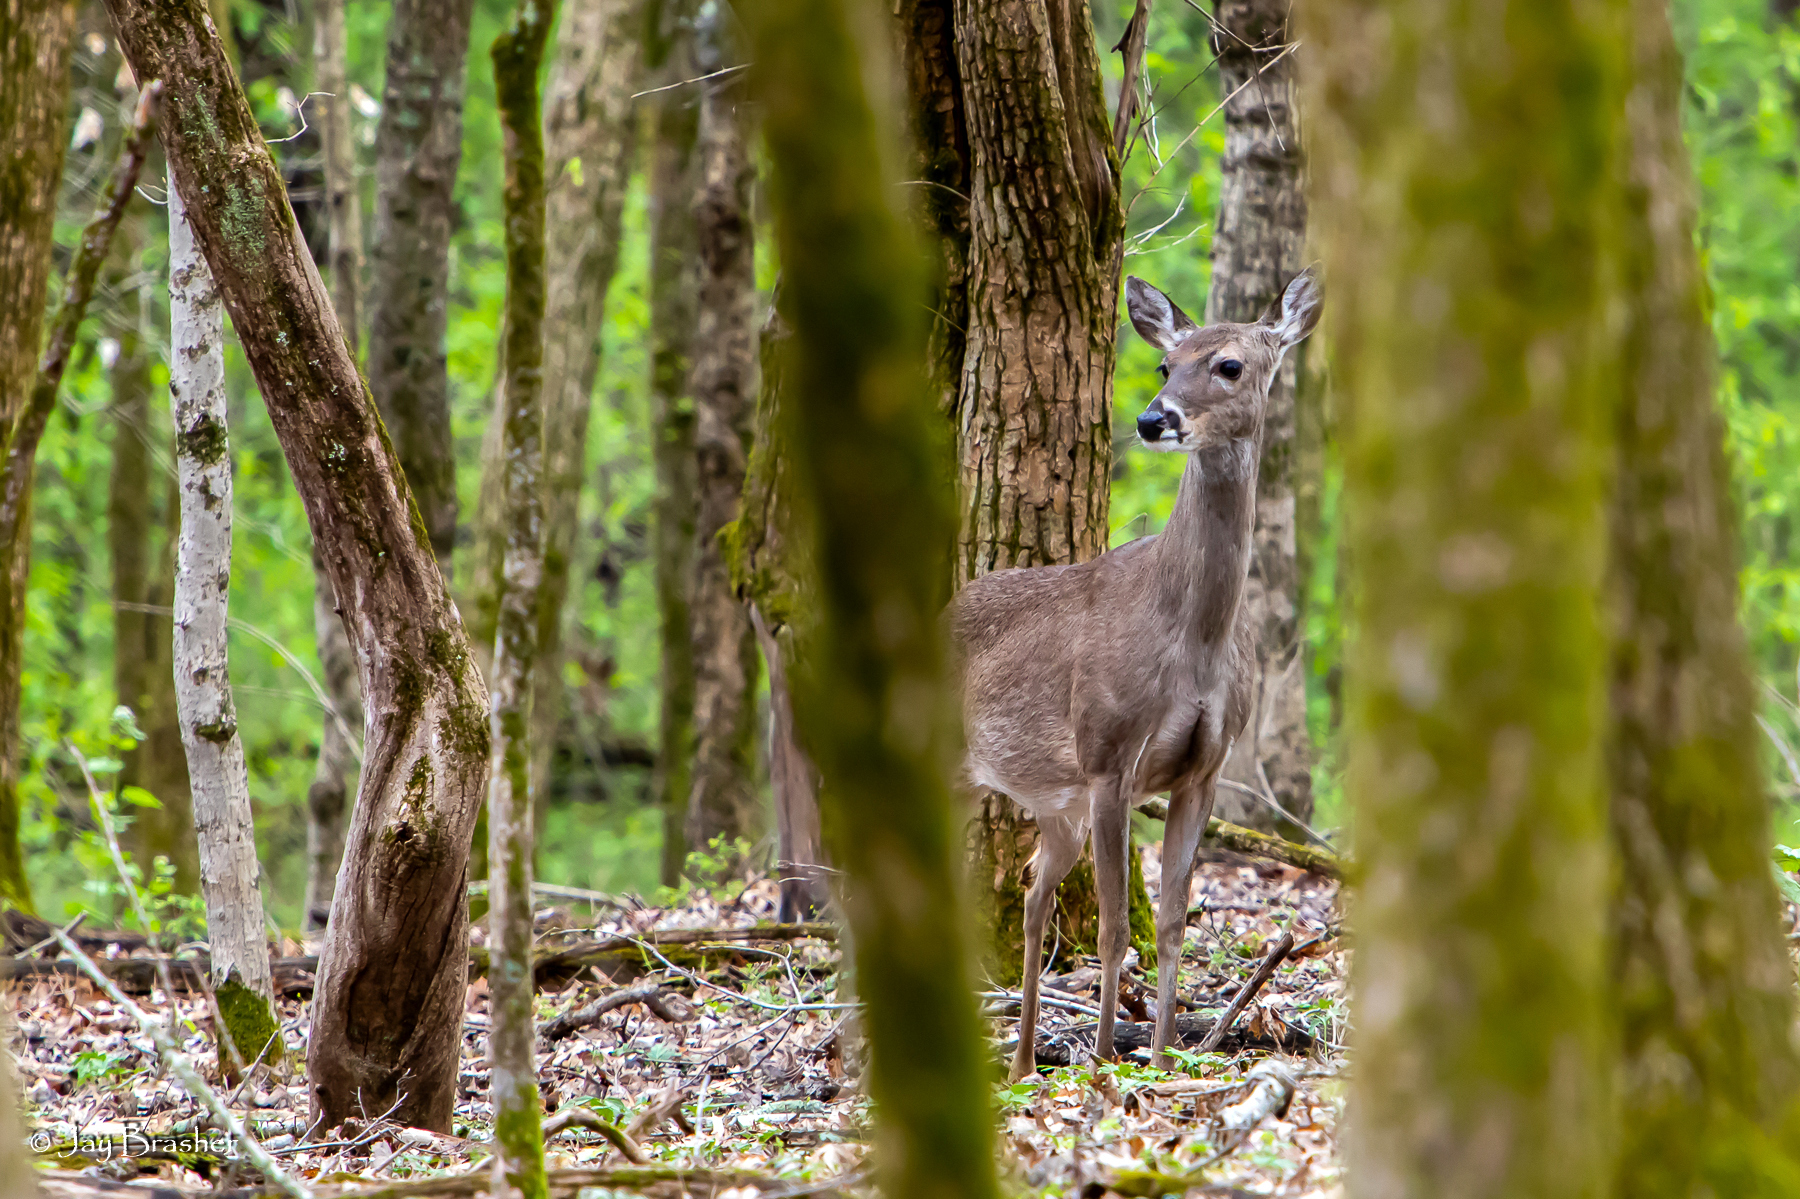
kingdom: Animalia
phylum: Chordata
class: Mammalia
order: Artiodactyla
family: Cervidae
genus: Odocoileus
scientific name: Odocoileus virginianus
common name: White-tailed deer
